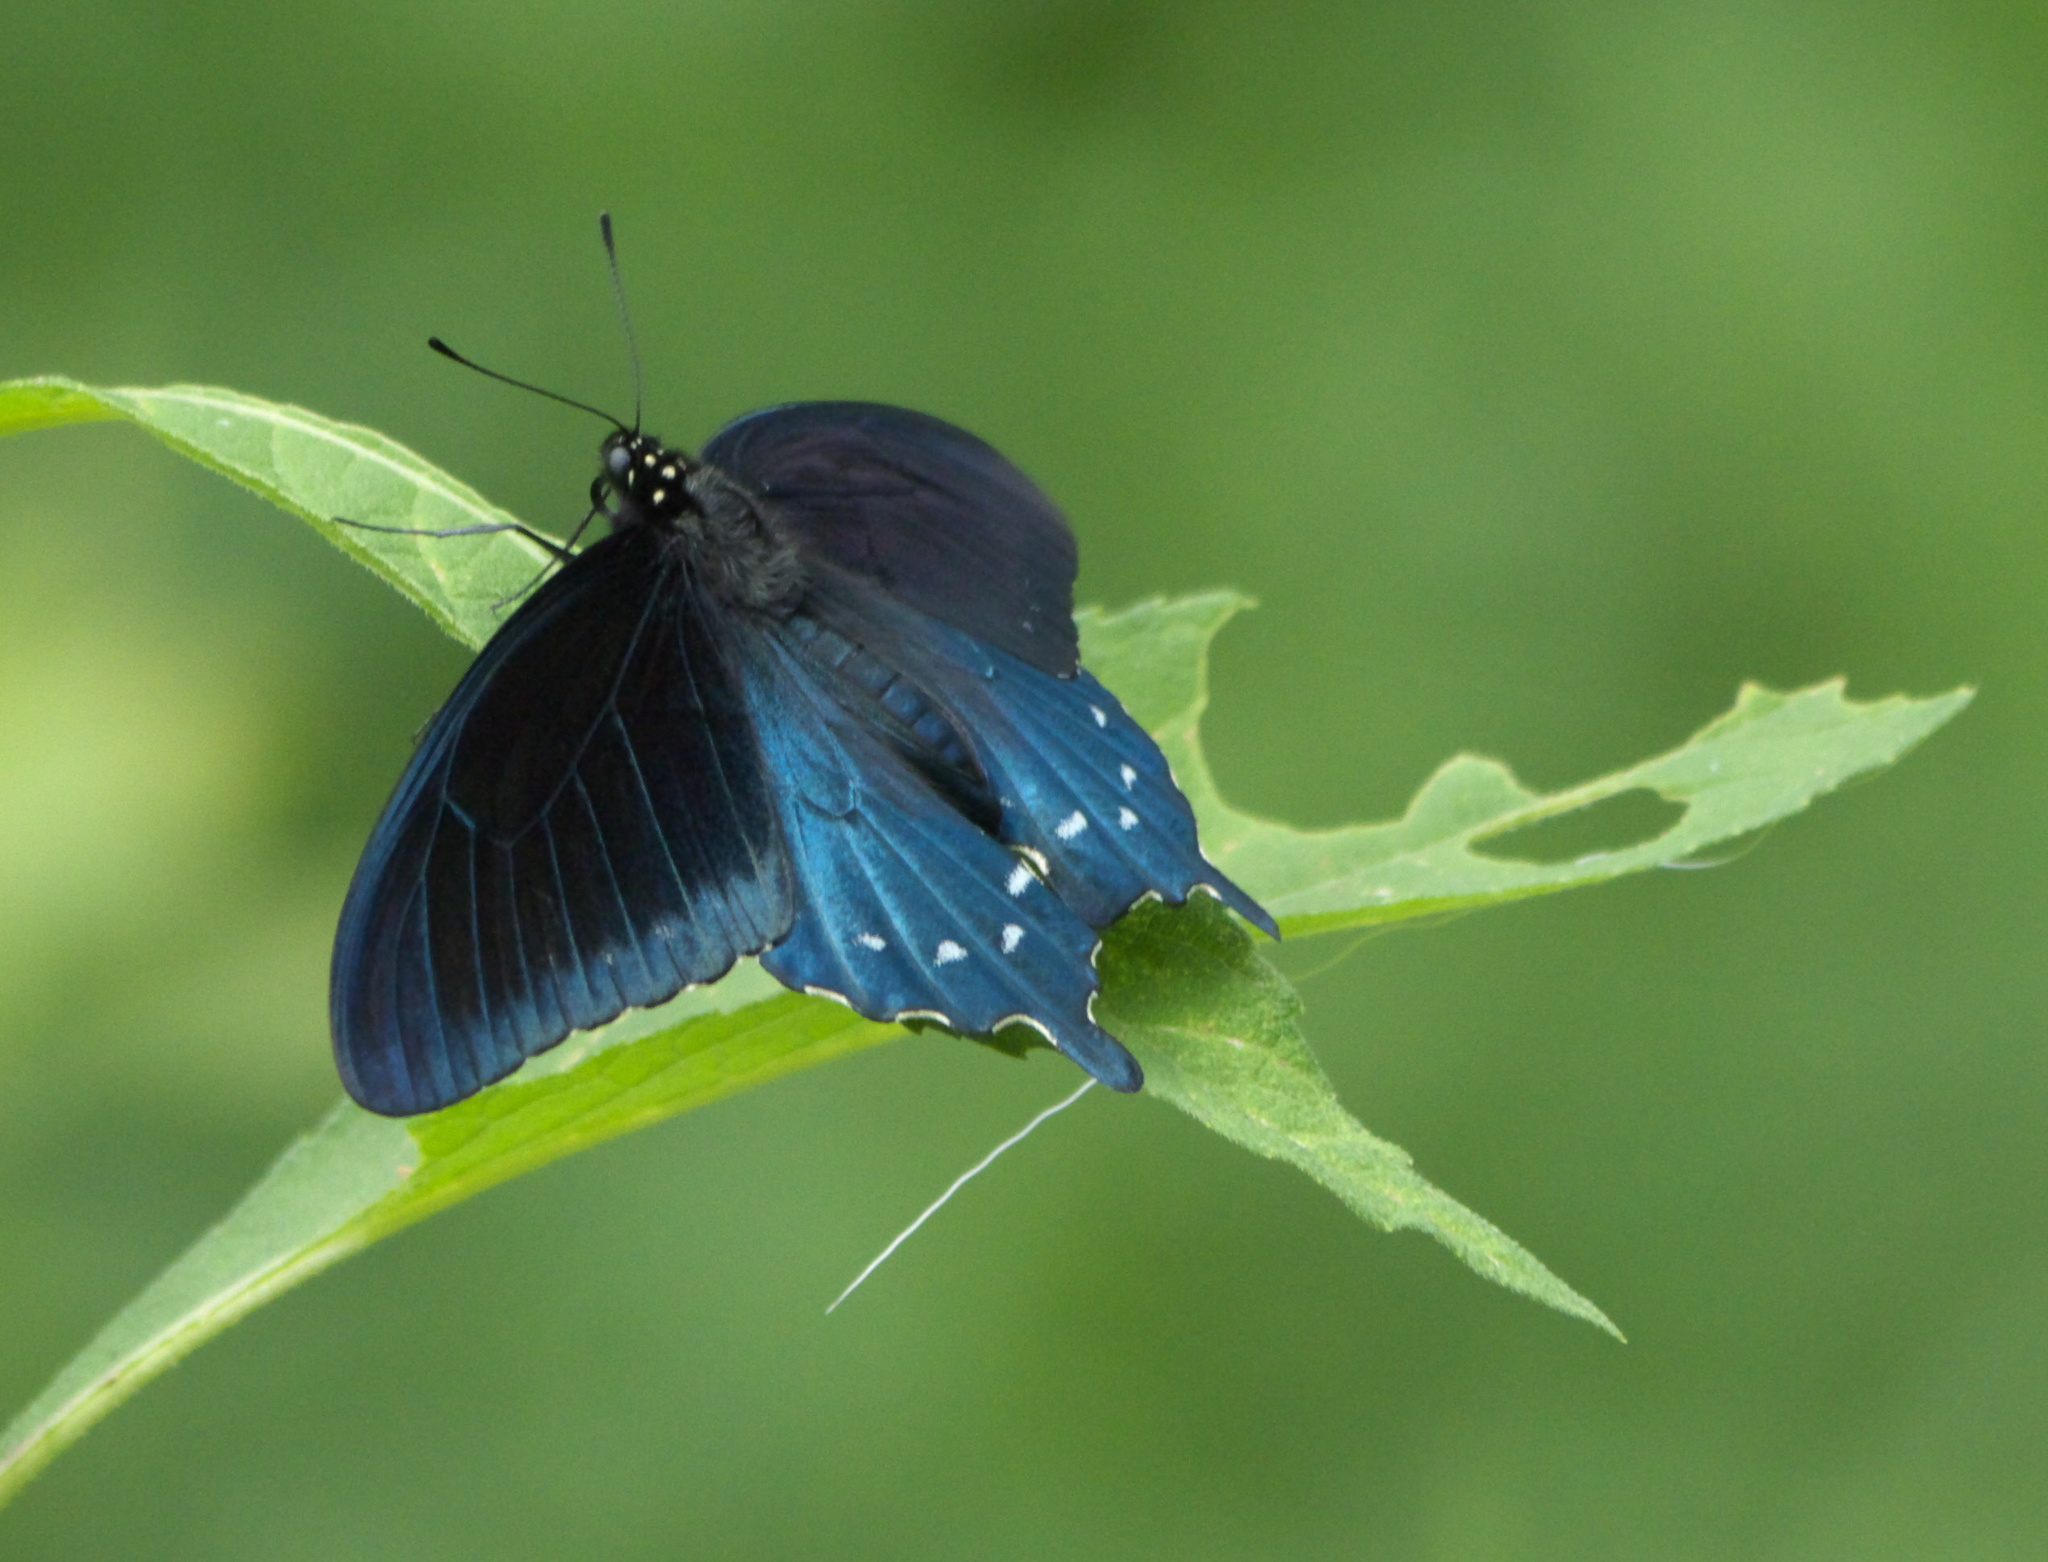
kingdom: Animalia
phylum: Arthropoda
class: Insecta
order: Lepidoptera
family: Papilionidae
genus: Battus
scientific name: Battus philenor
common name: Pipevine swallowtail
